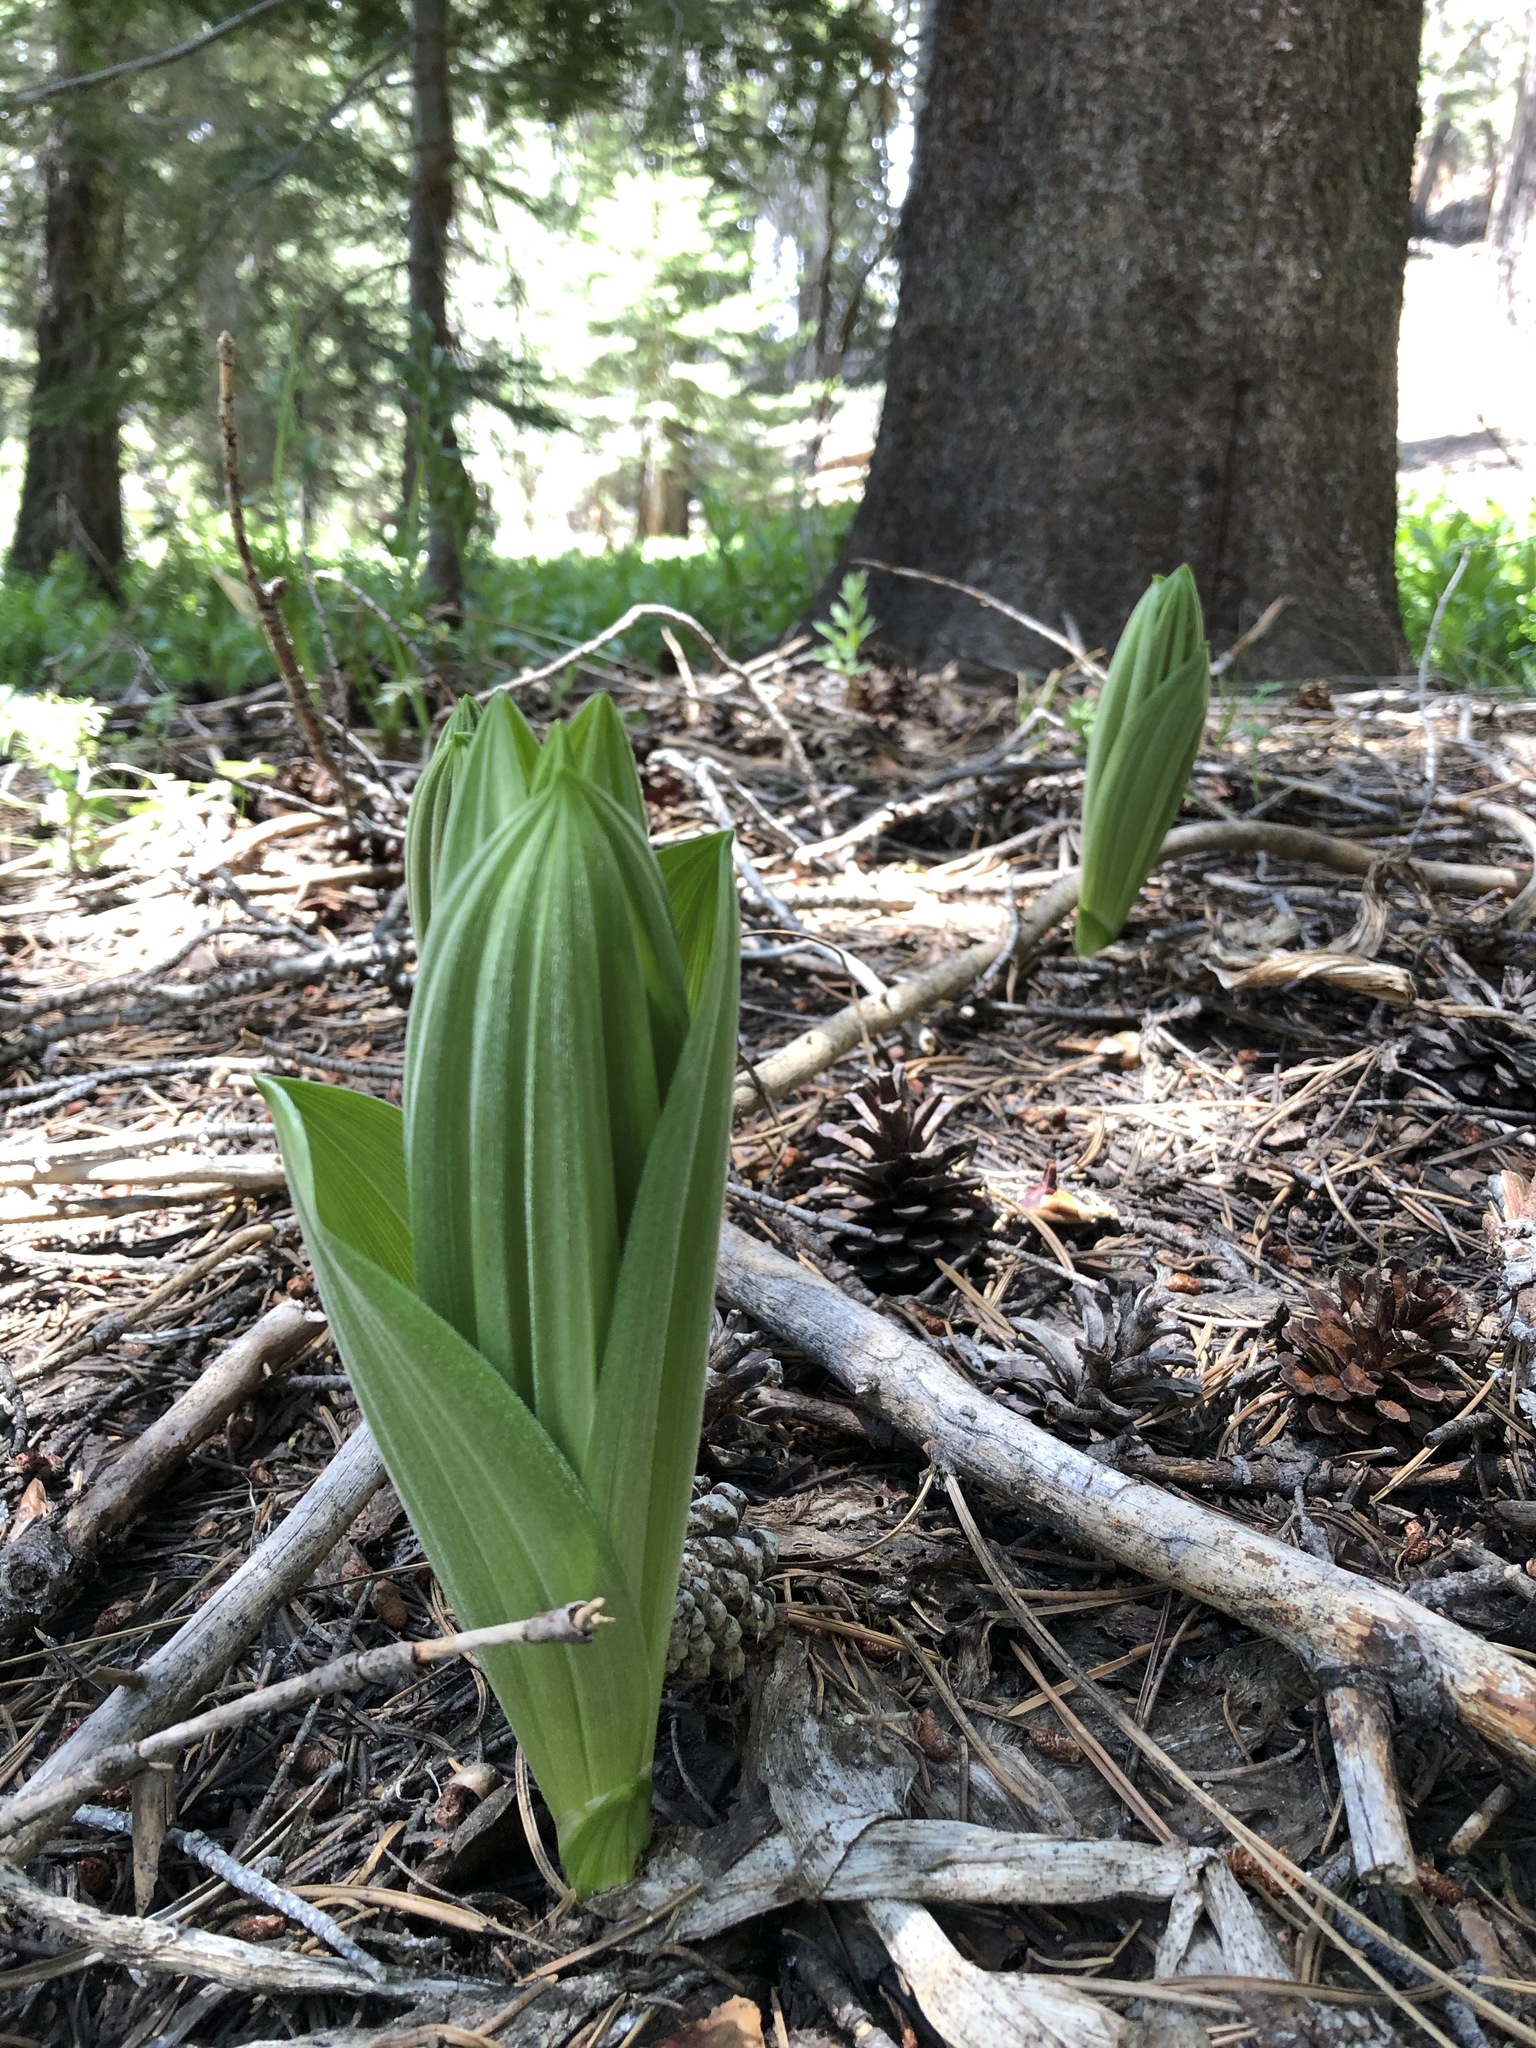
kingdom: Plantae
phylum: Tracheophyta
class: Liliopsida
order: Liliales
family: Melanthiaceae
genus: Veratrum
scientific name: Veratrum californicum
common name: California veratrum
